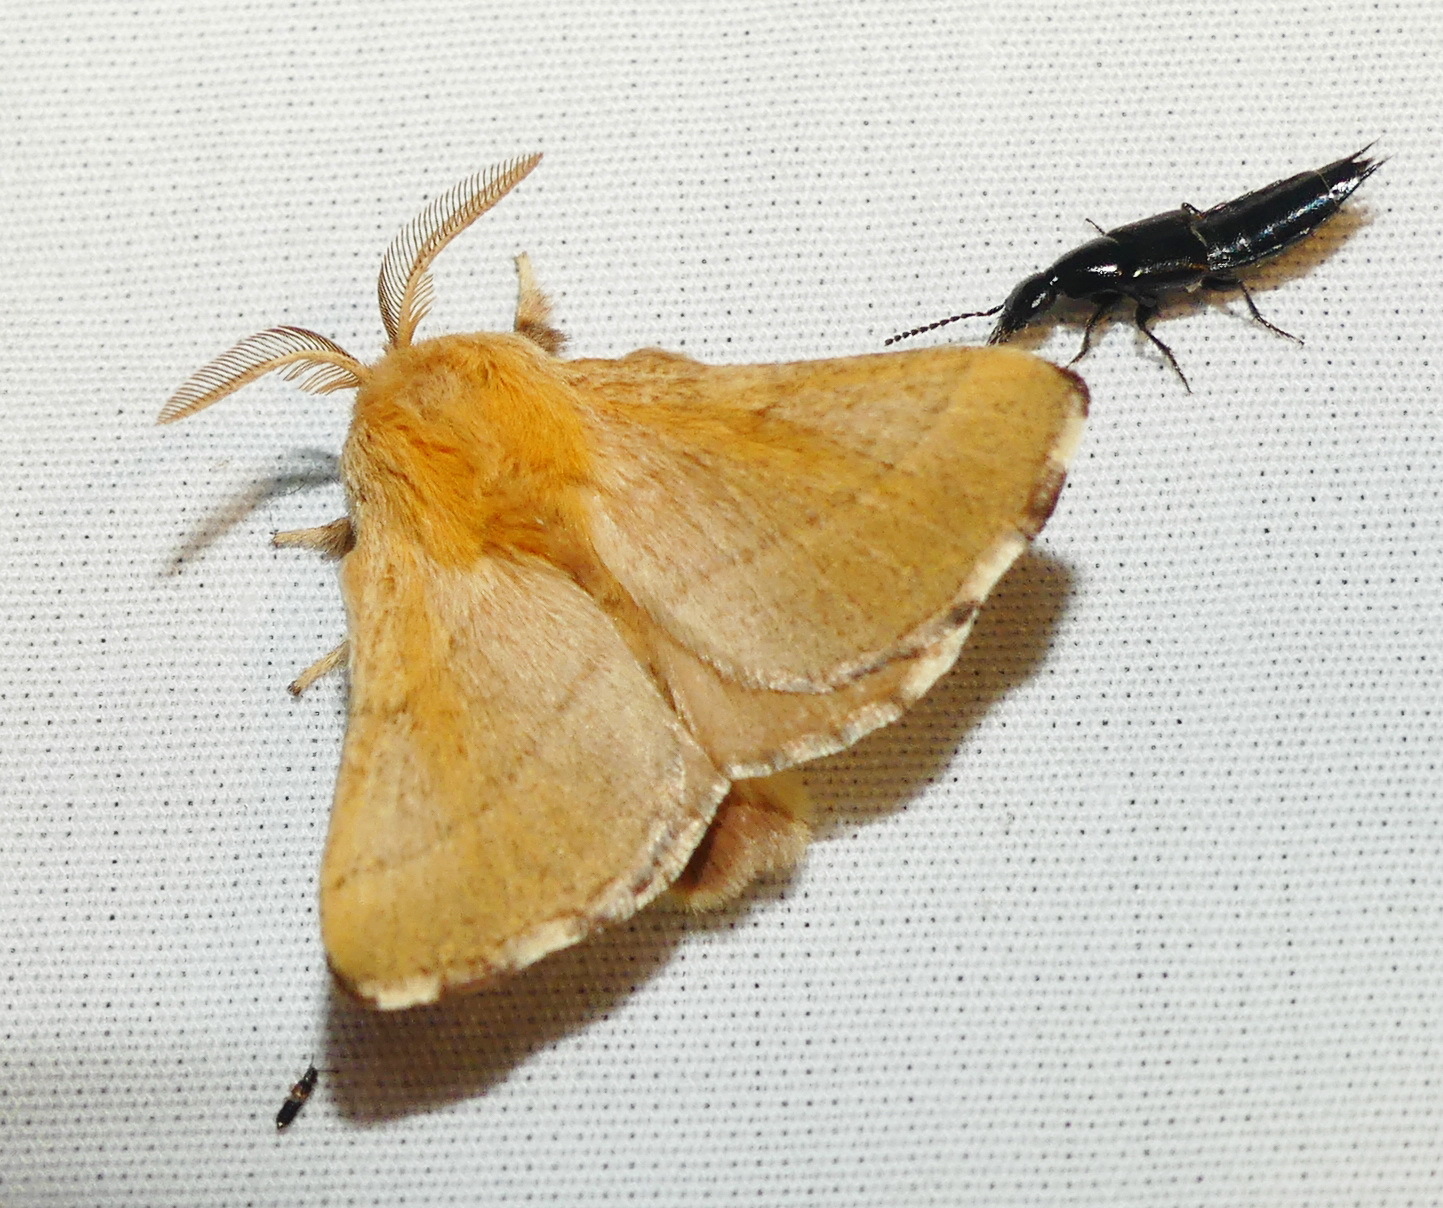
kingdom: Animalia
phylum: Arthropoda
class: Insecta
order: Lepidoptera
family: Lasiocampidae
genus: Malacosoma
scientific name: Malacosoma disstria
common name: Forest tent caterpillar
